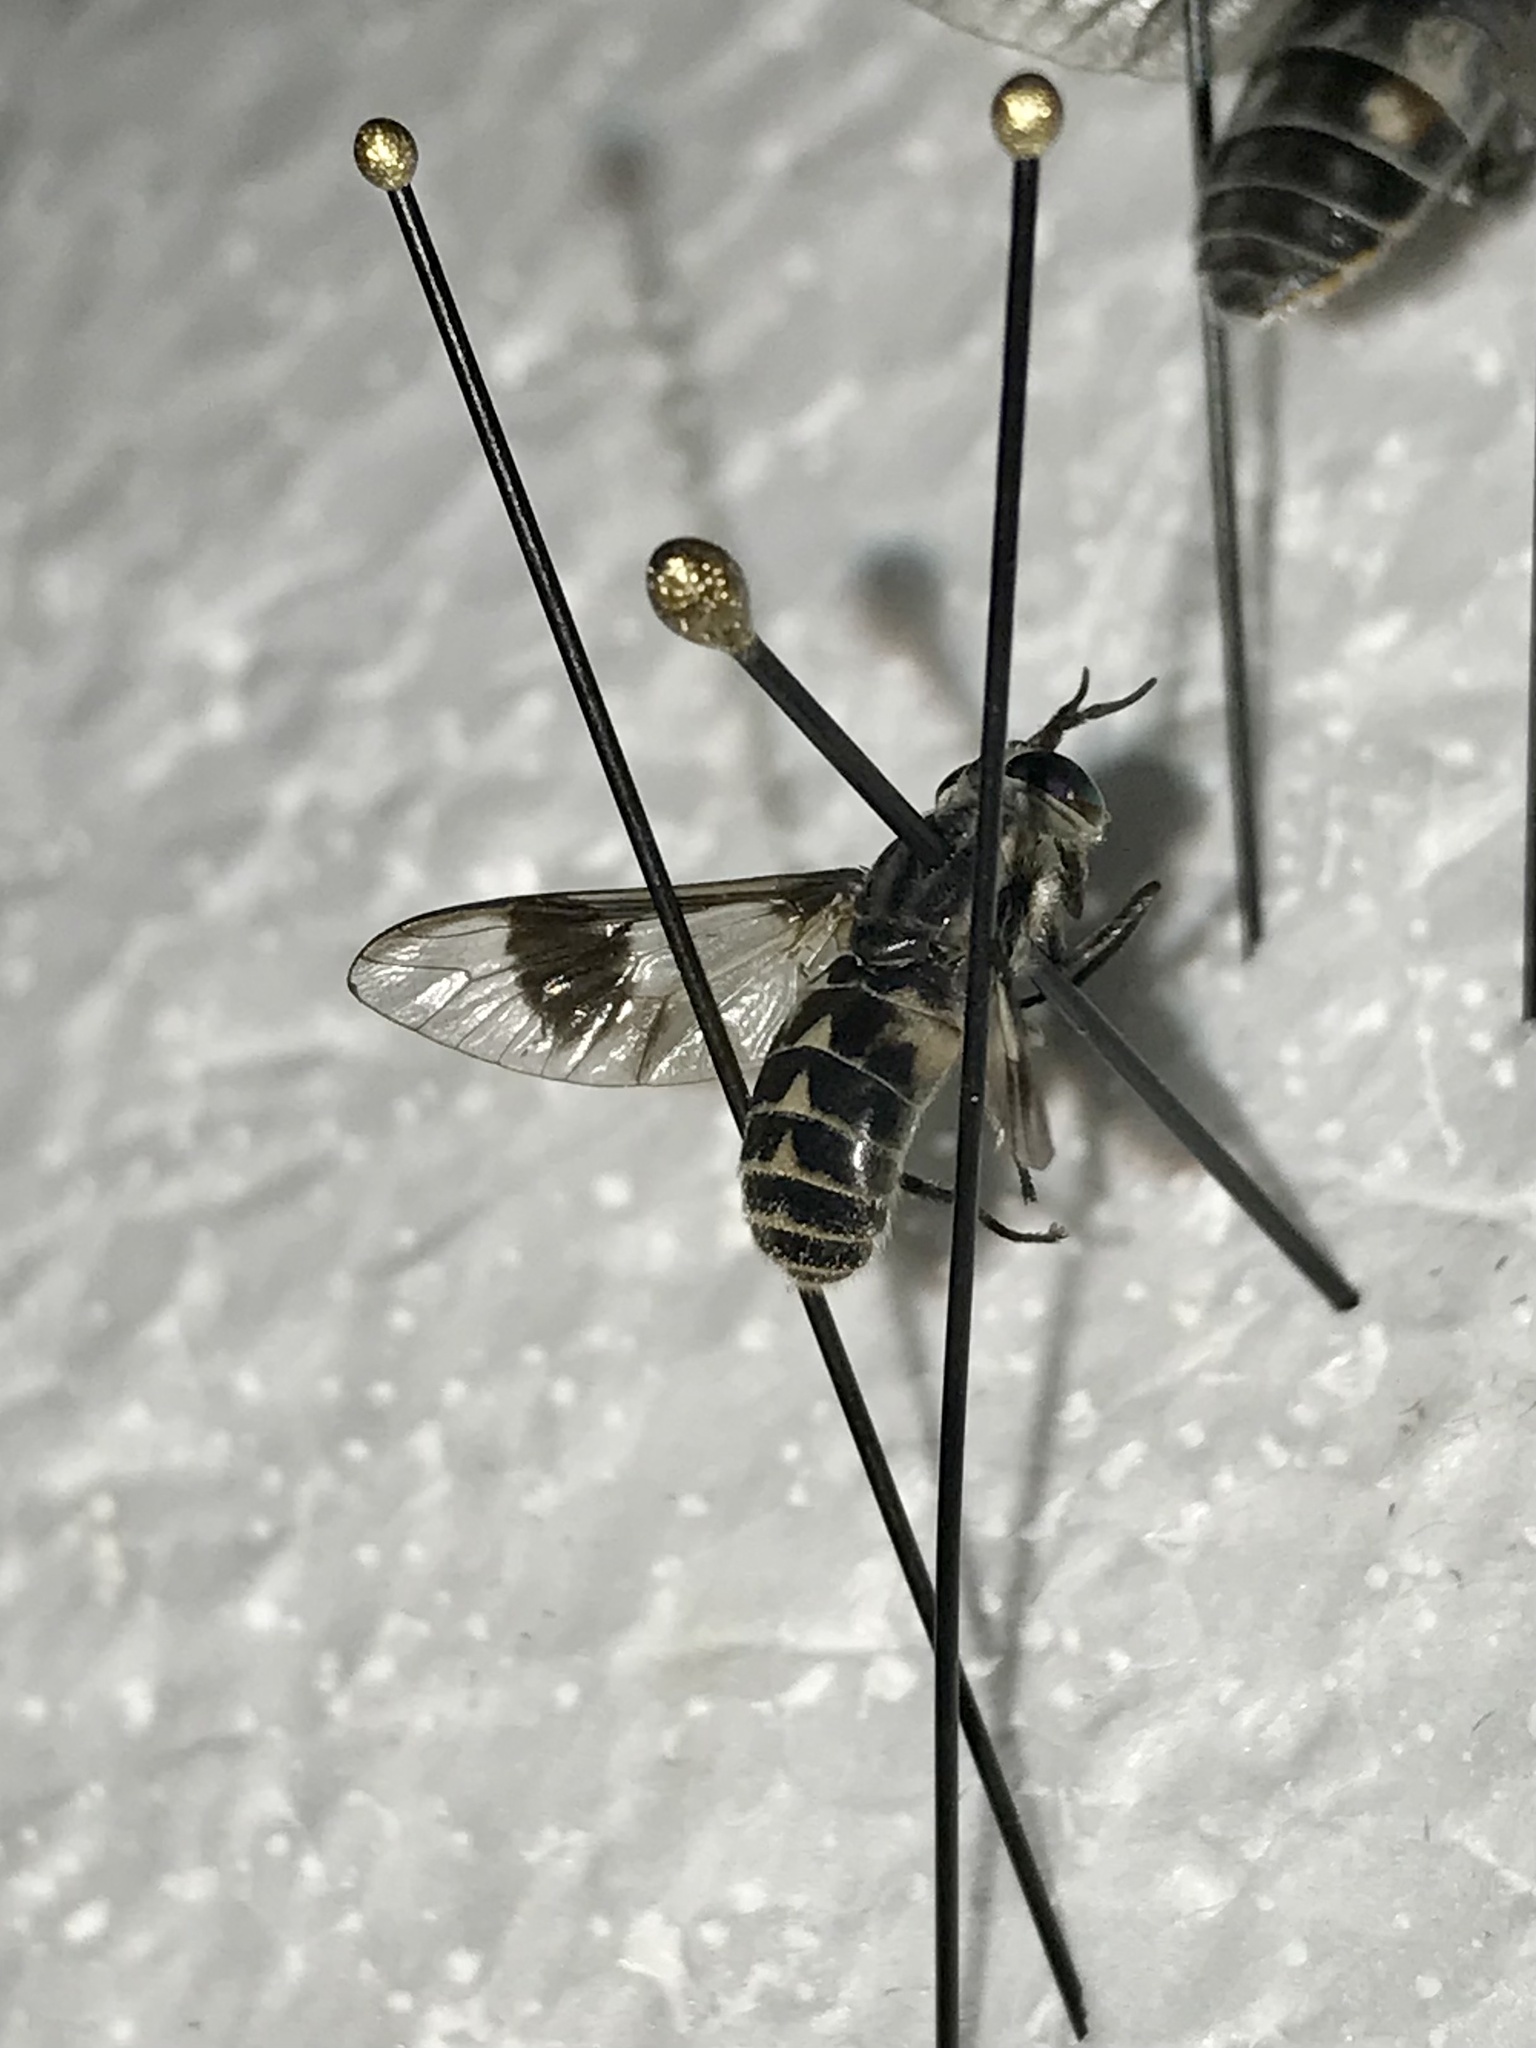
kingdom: Animalia
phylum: Arthropoda
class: Insecta
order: Diptera
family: Tabanidae
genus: Chrysops
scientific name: Chrysops aestuans
